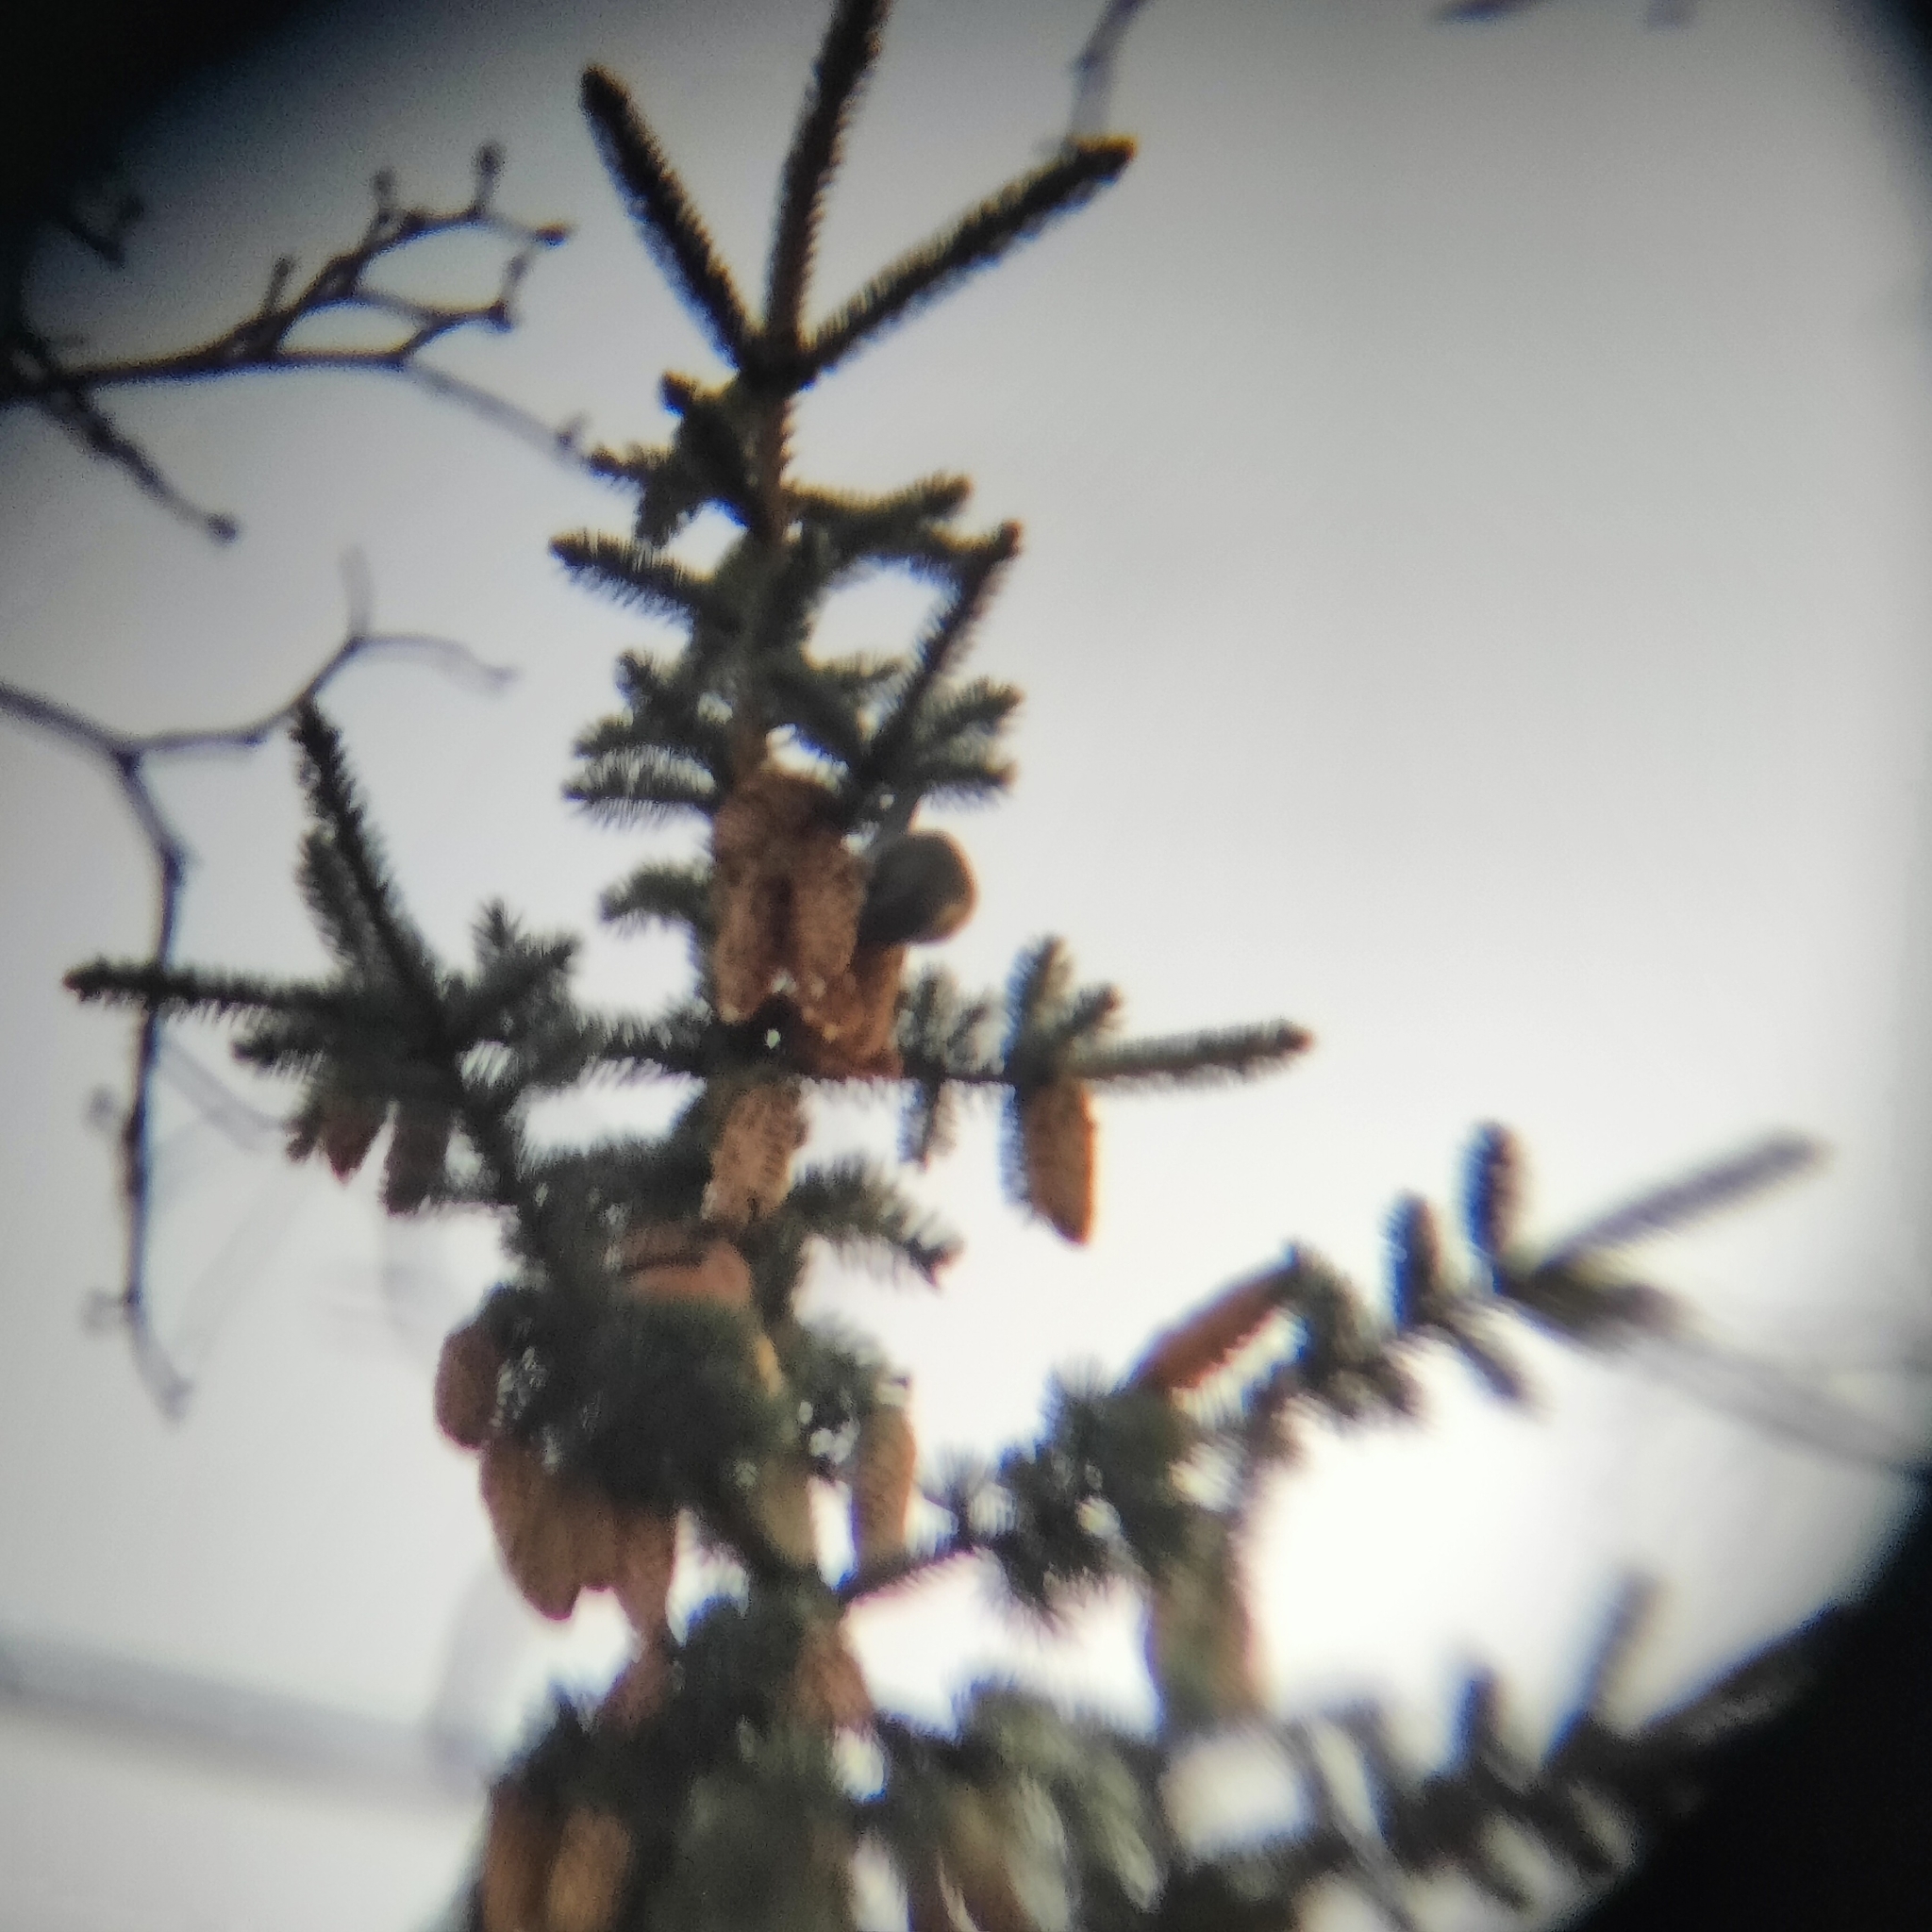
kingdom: Animalia
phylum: Chordata
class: Aves
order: Passeriformes
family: Fringillidae
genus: Loxia
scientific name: Loxia curvirostra
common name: Red crossbill
